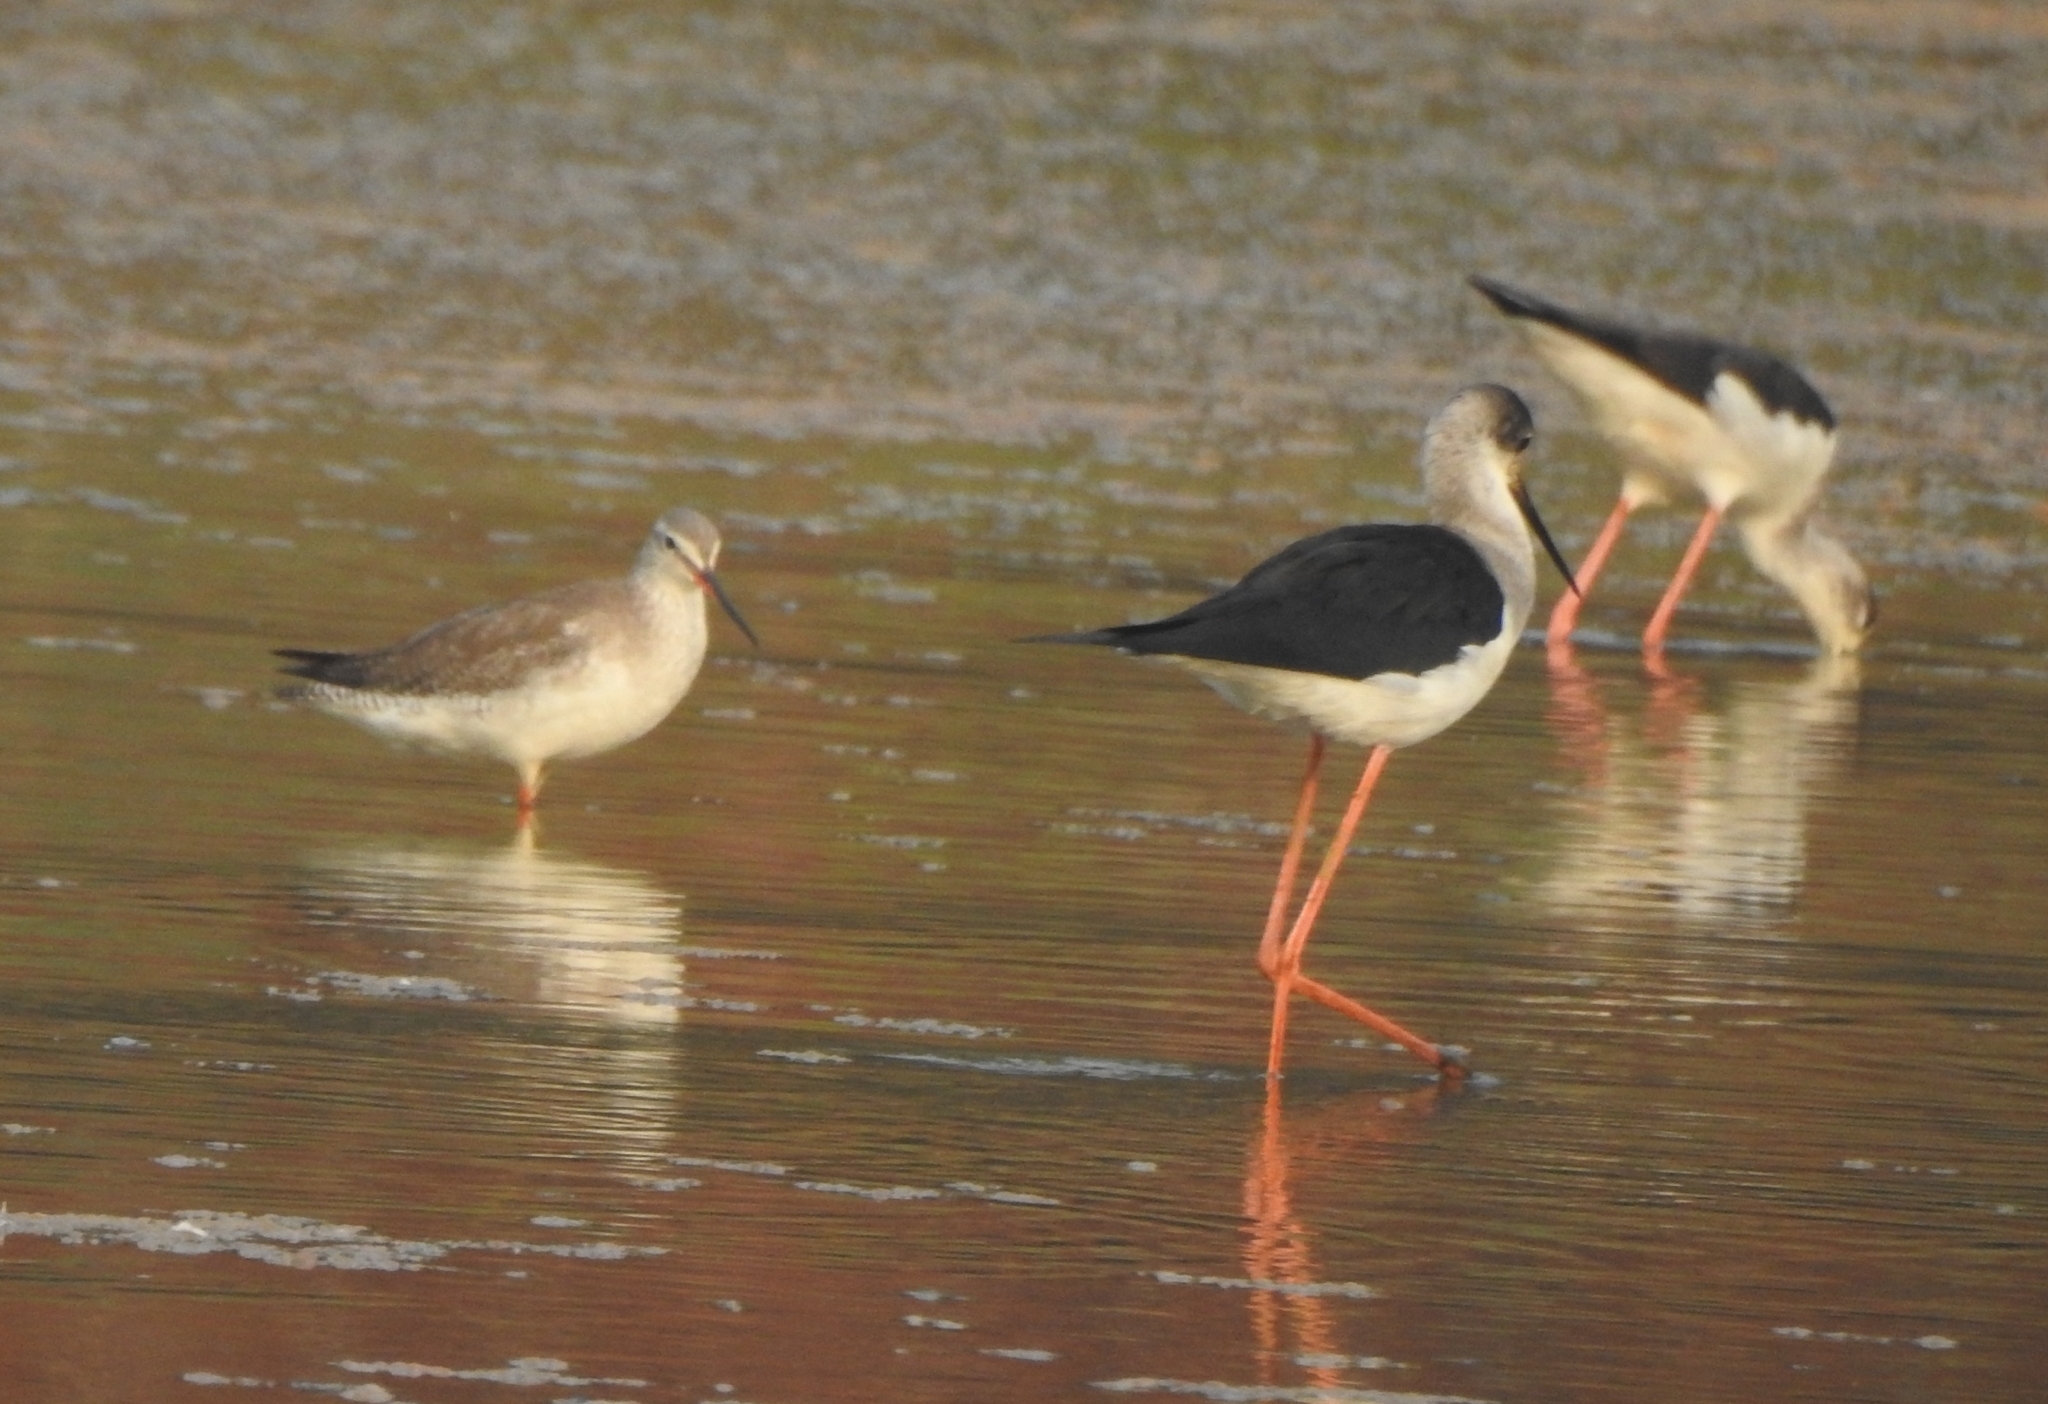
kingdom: Animalia
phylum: Chordata
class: Aves
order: Charadriiformes
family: Recurvirostridae
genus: Himantopus
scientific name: Himantopus himantopus
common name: Black-winged stilt
